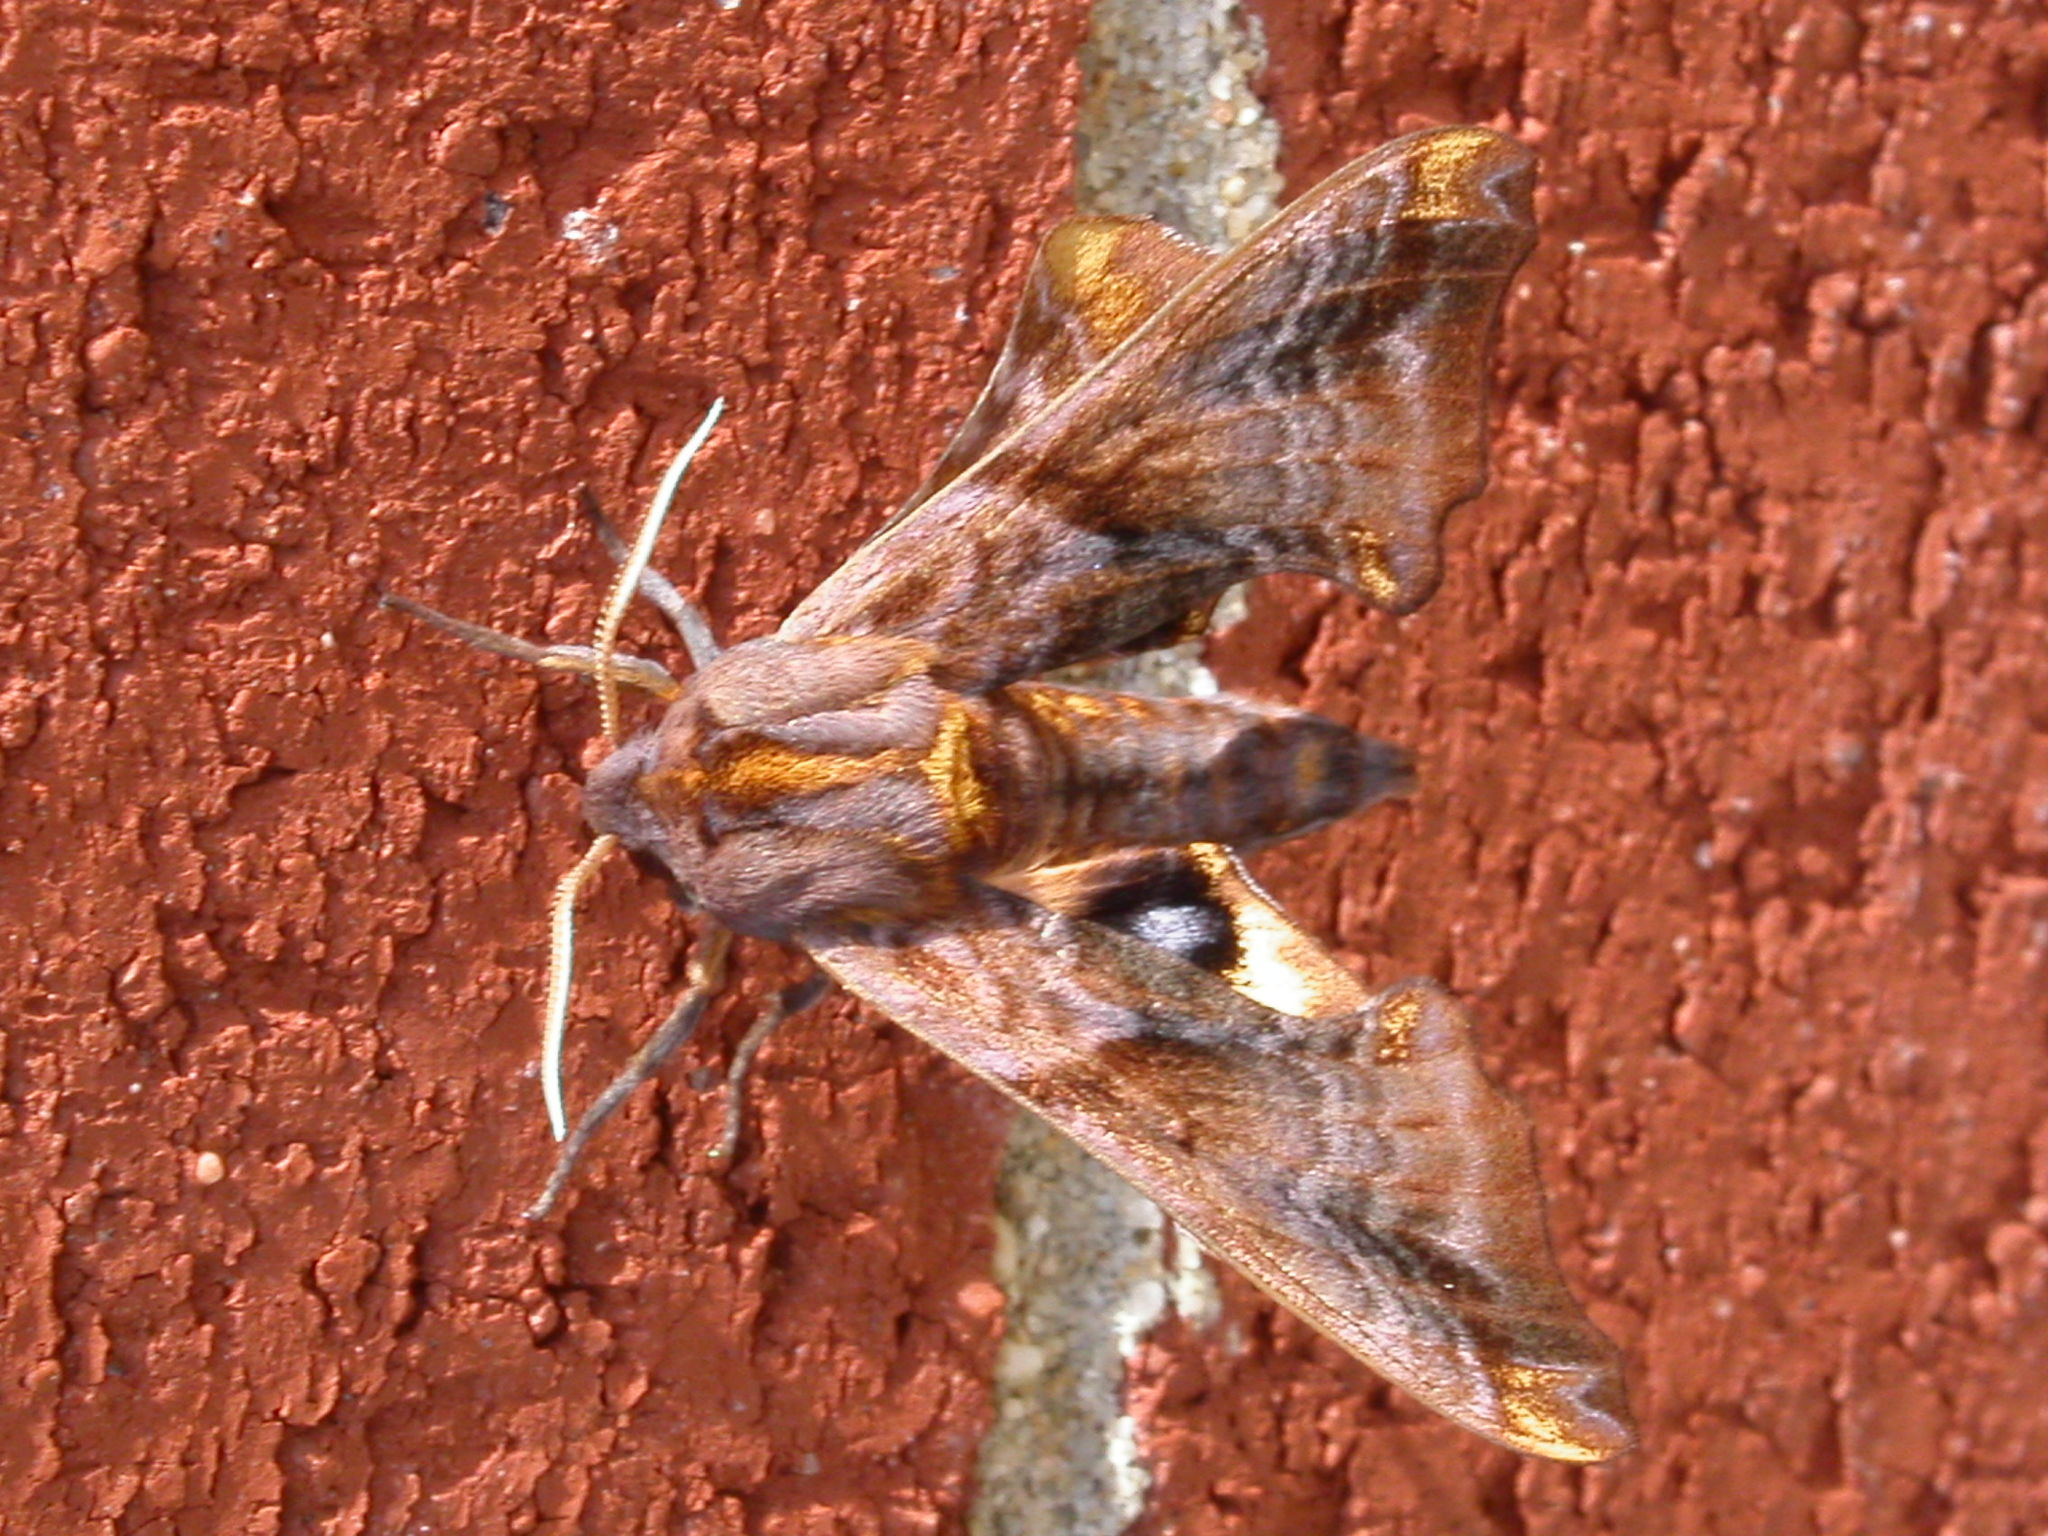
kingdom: Animalia
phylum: Arthropoda
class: Insecta
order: Lepidoptera
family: Sphingidae
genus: Paonias
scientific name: Paonias myops
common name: Small-eyed sphinx
